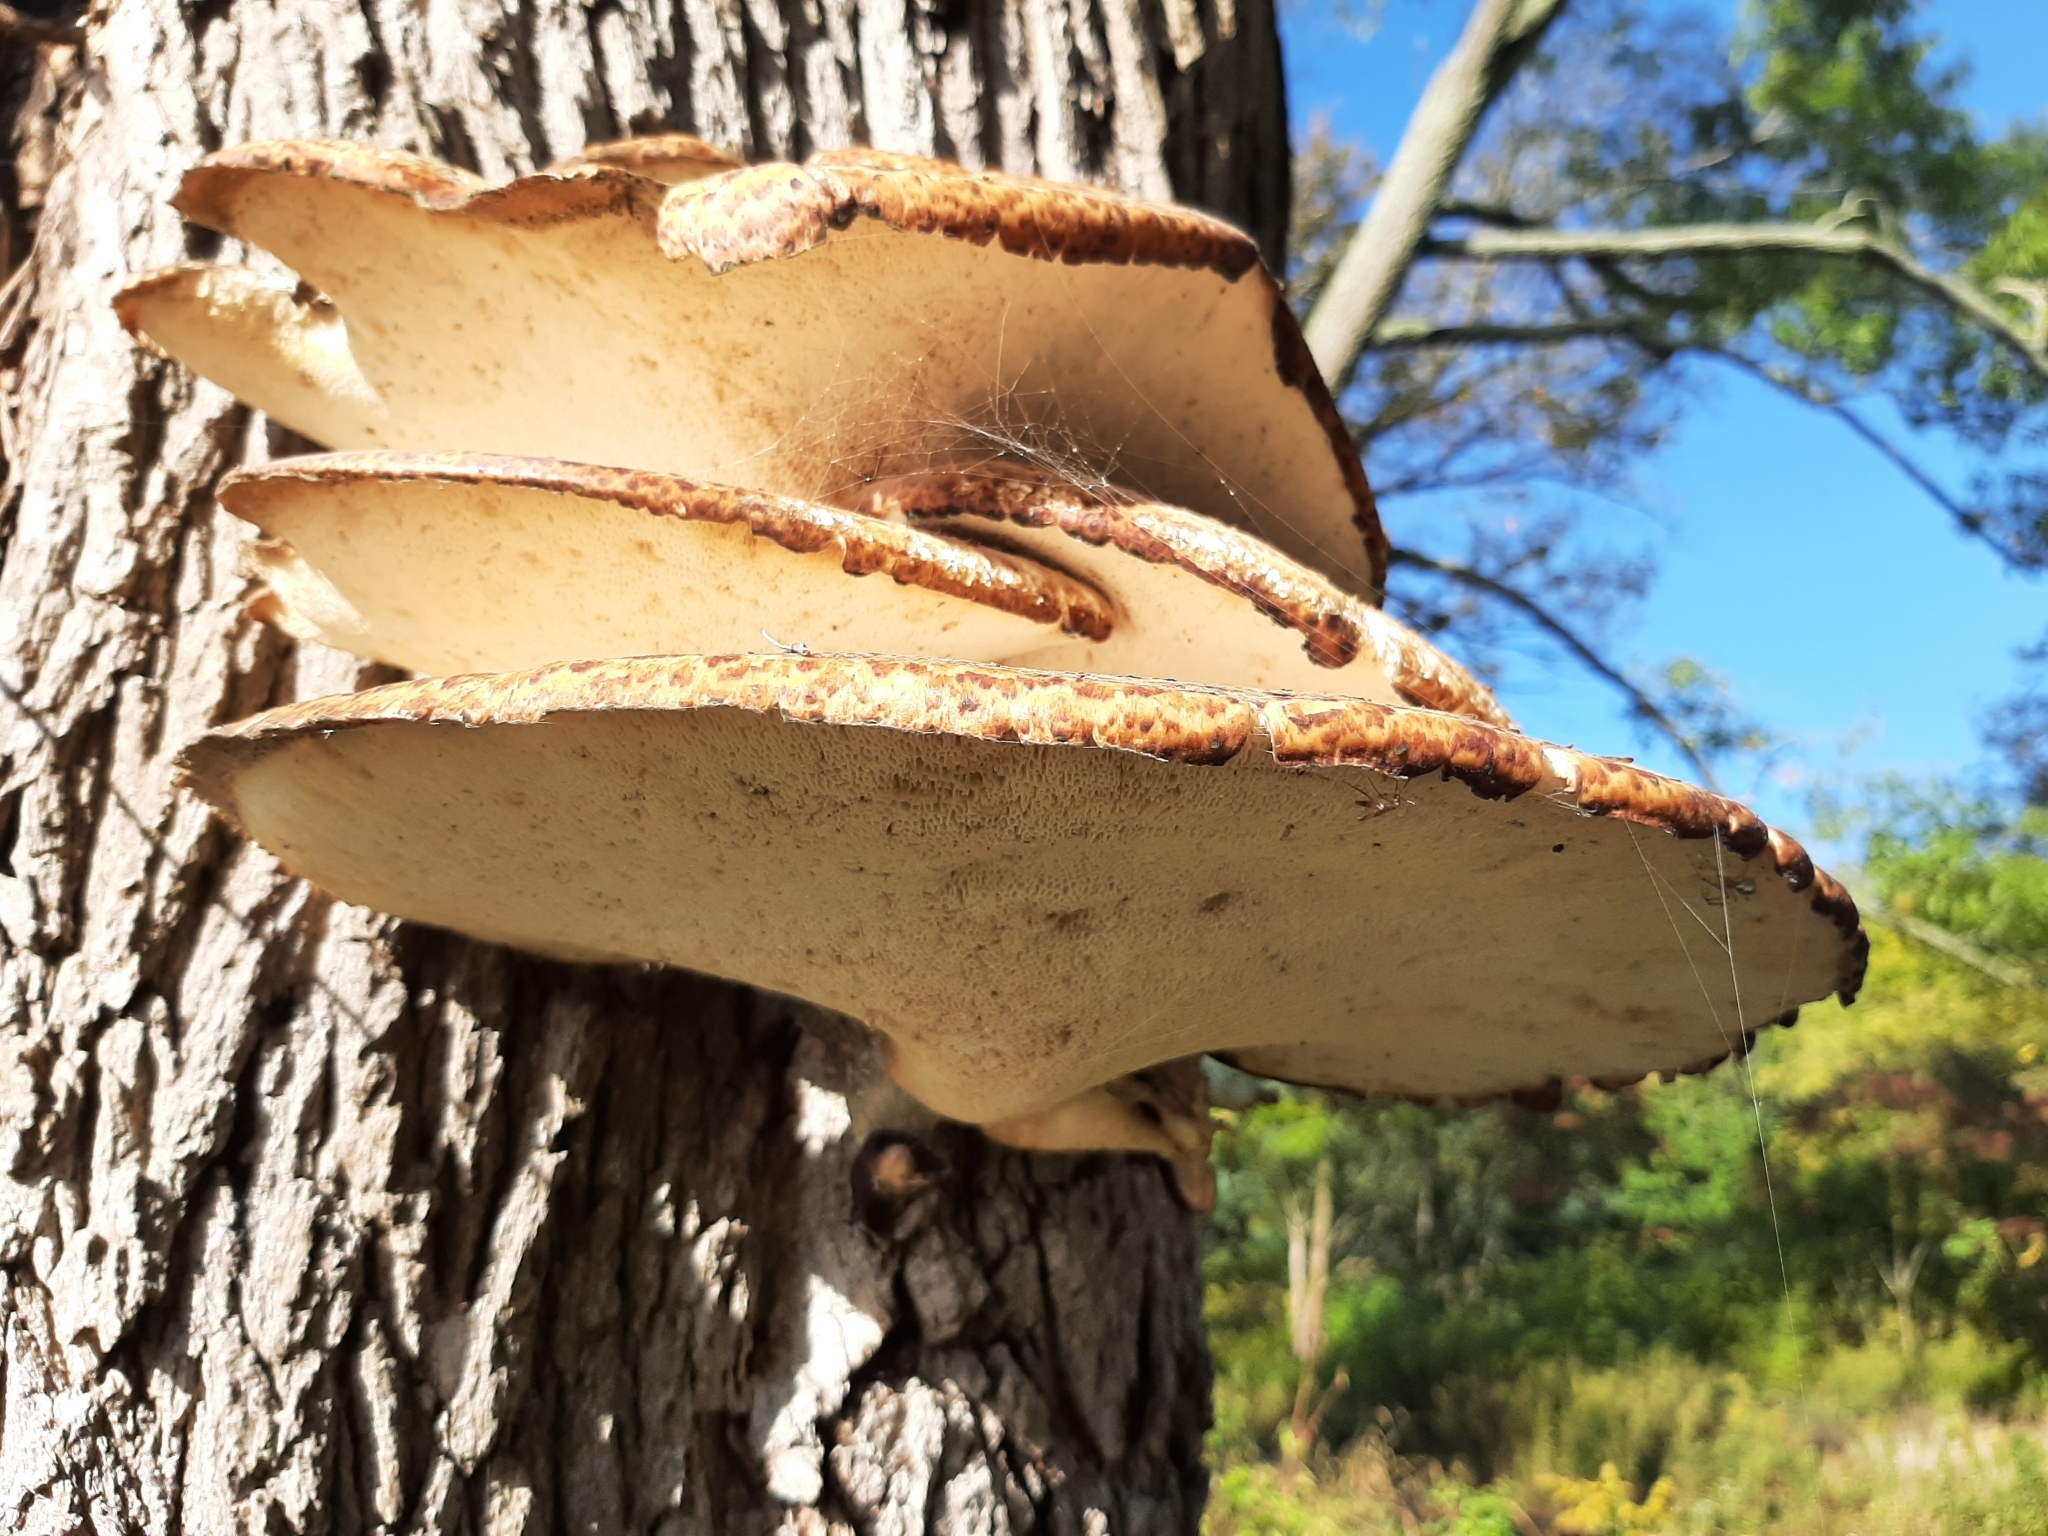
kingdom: Fungi
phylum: Basidiomycota
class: Agaricomycetes
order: Polyporales
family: Polyporaceae
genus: Cerioporus
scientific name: Cerioporus squamosus
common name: Dryad's saddle
